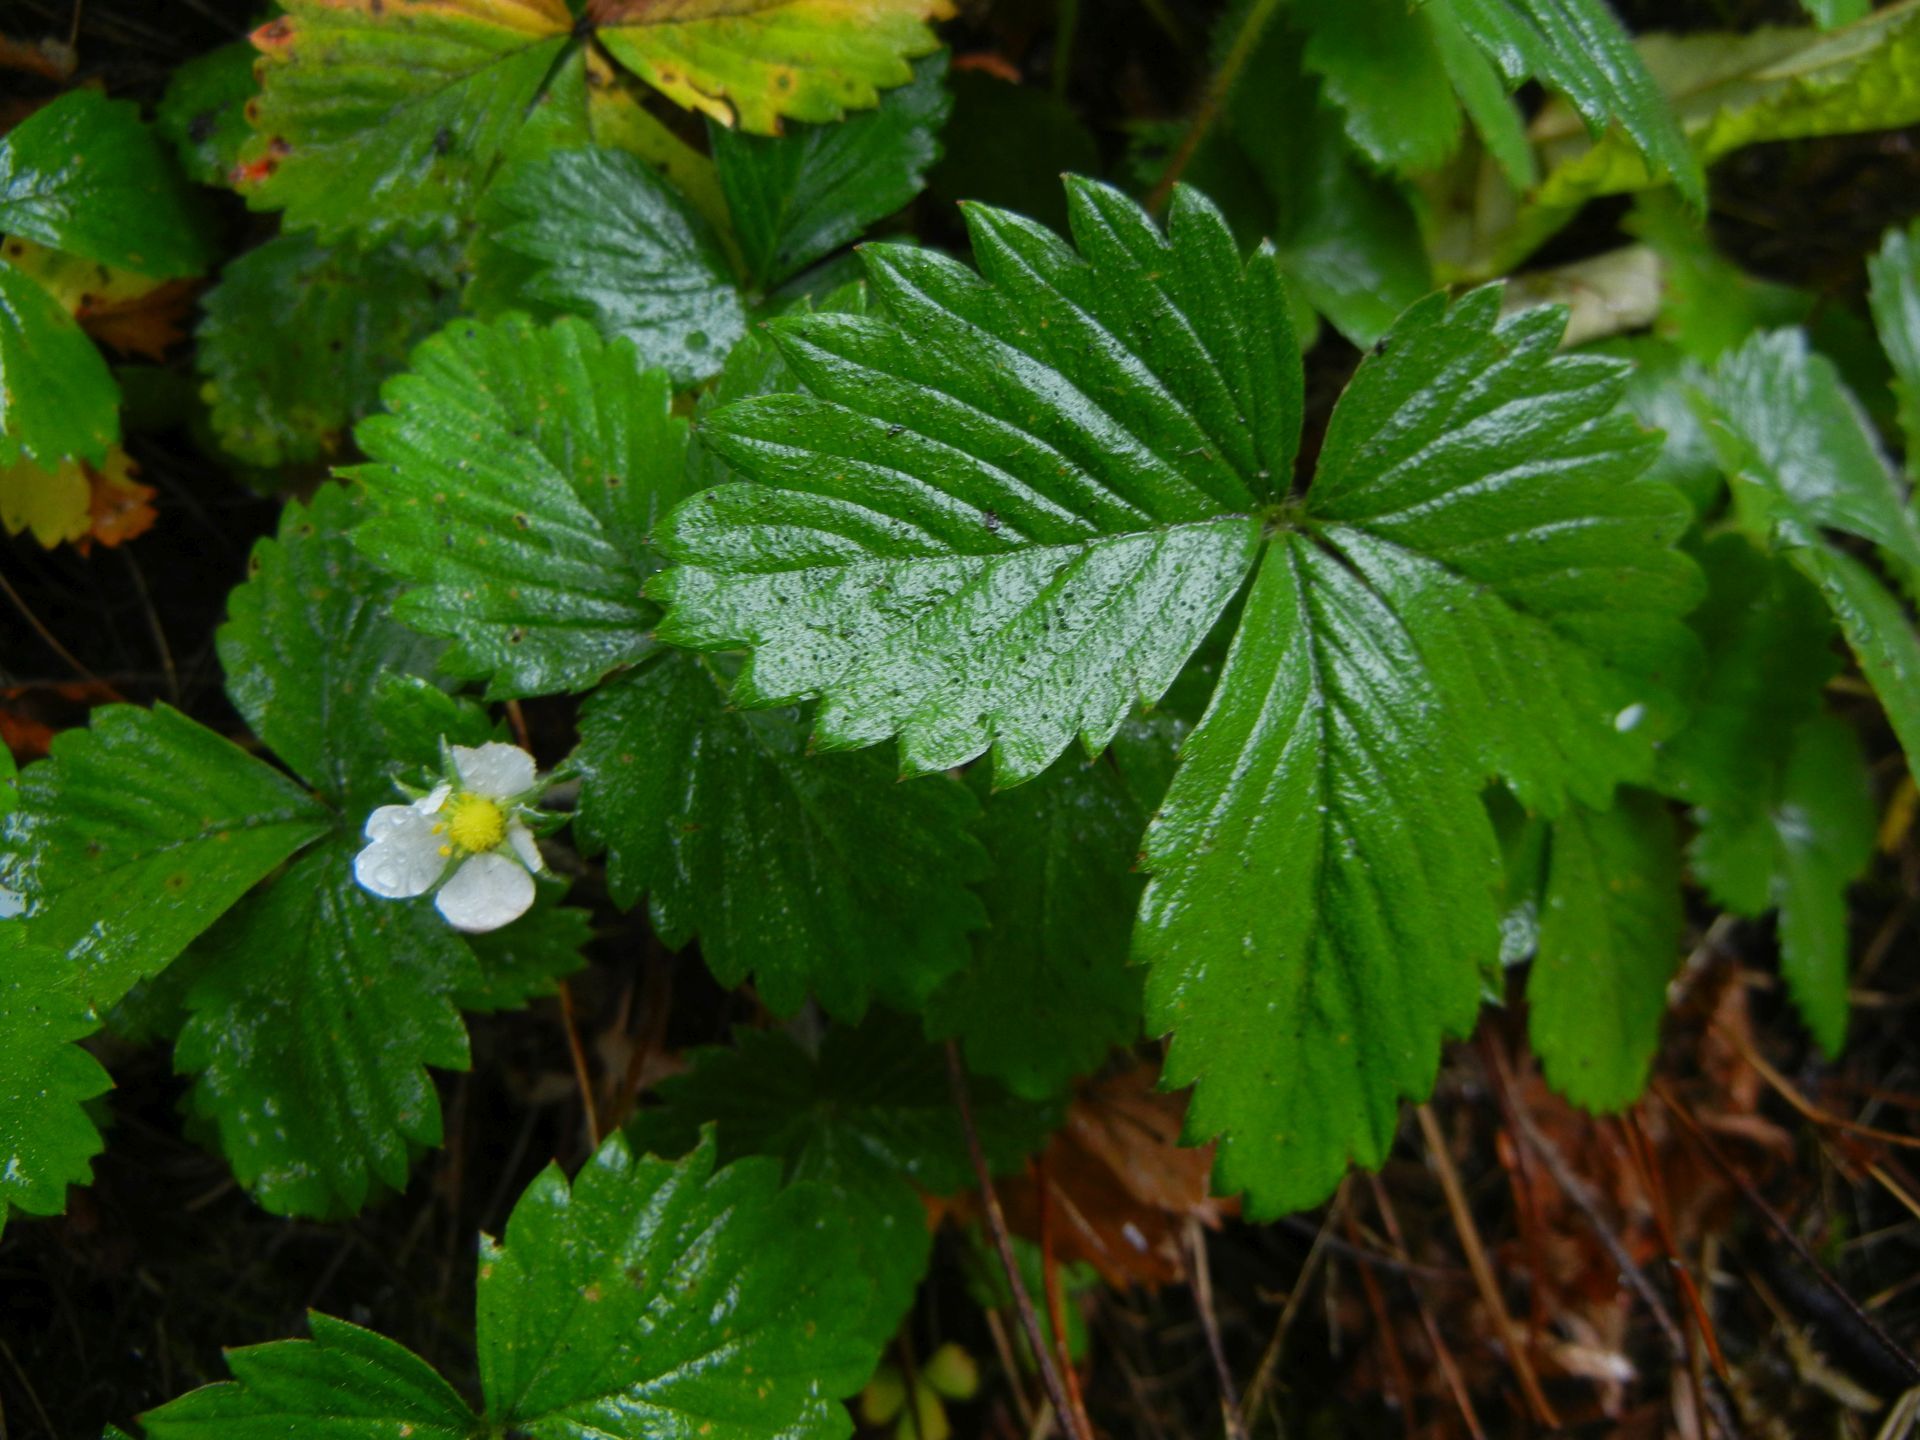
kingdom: Plantae
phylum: Tracheophyta
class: Magnoliopsida
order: Rosales
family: Rosaceae
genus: Fragaria
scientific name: Fragaria vesca
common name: Wild strawberry
